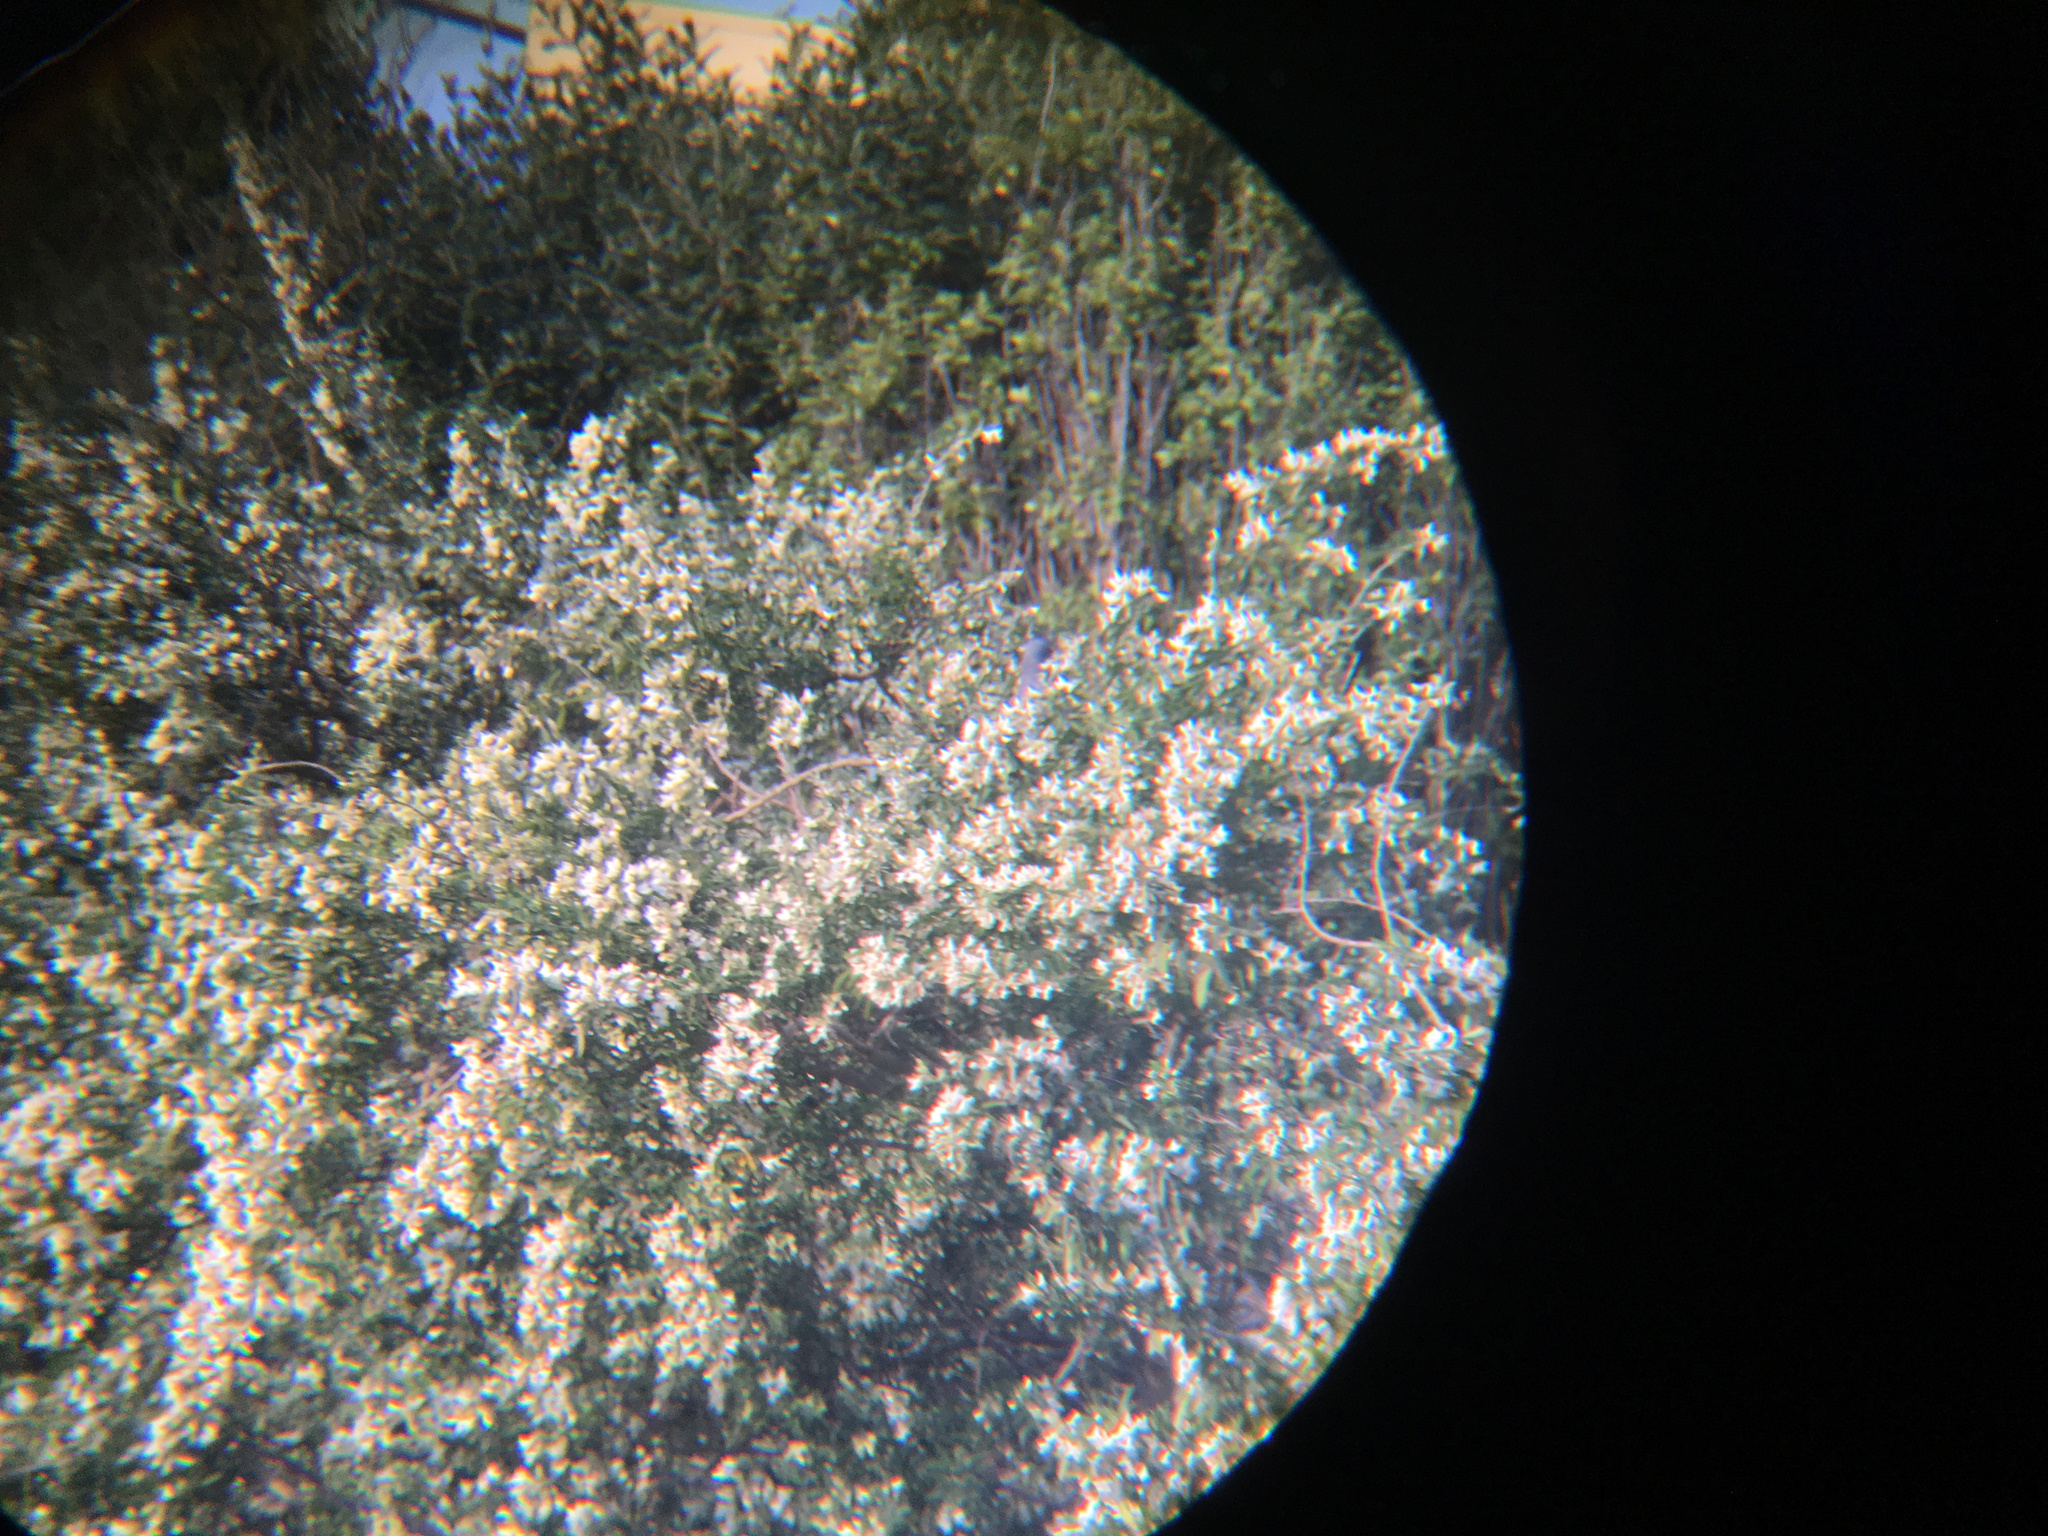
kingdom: Animalia
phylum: Chordata
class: Aves
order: Columbiformes
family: Columbidae
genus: Hemiphaga
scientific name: Hemiphaga novaeseelandiae
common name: New zealand pigeon
